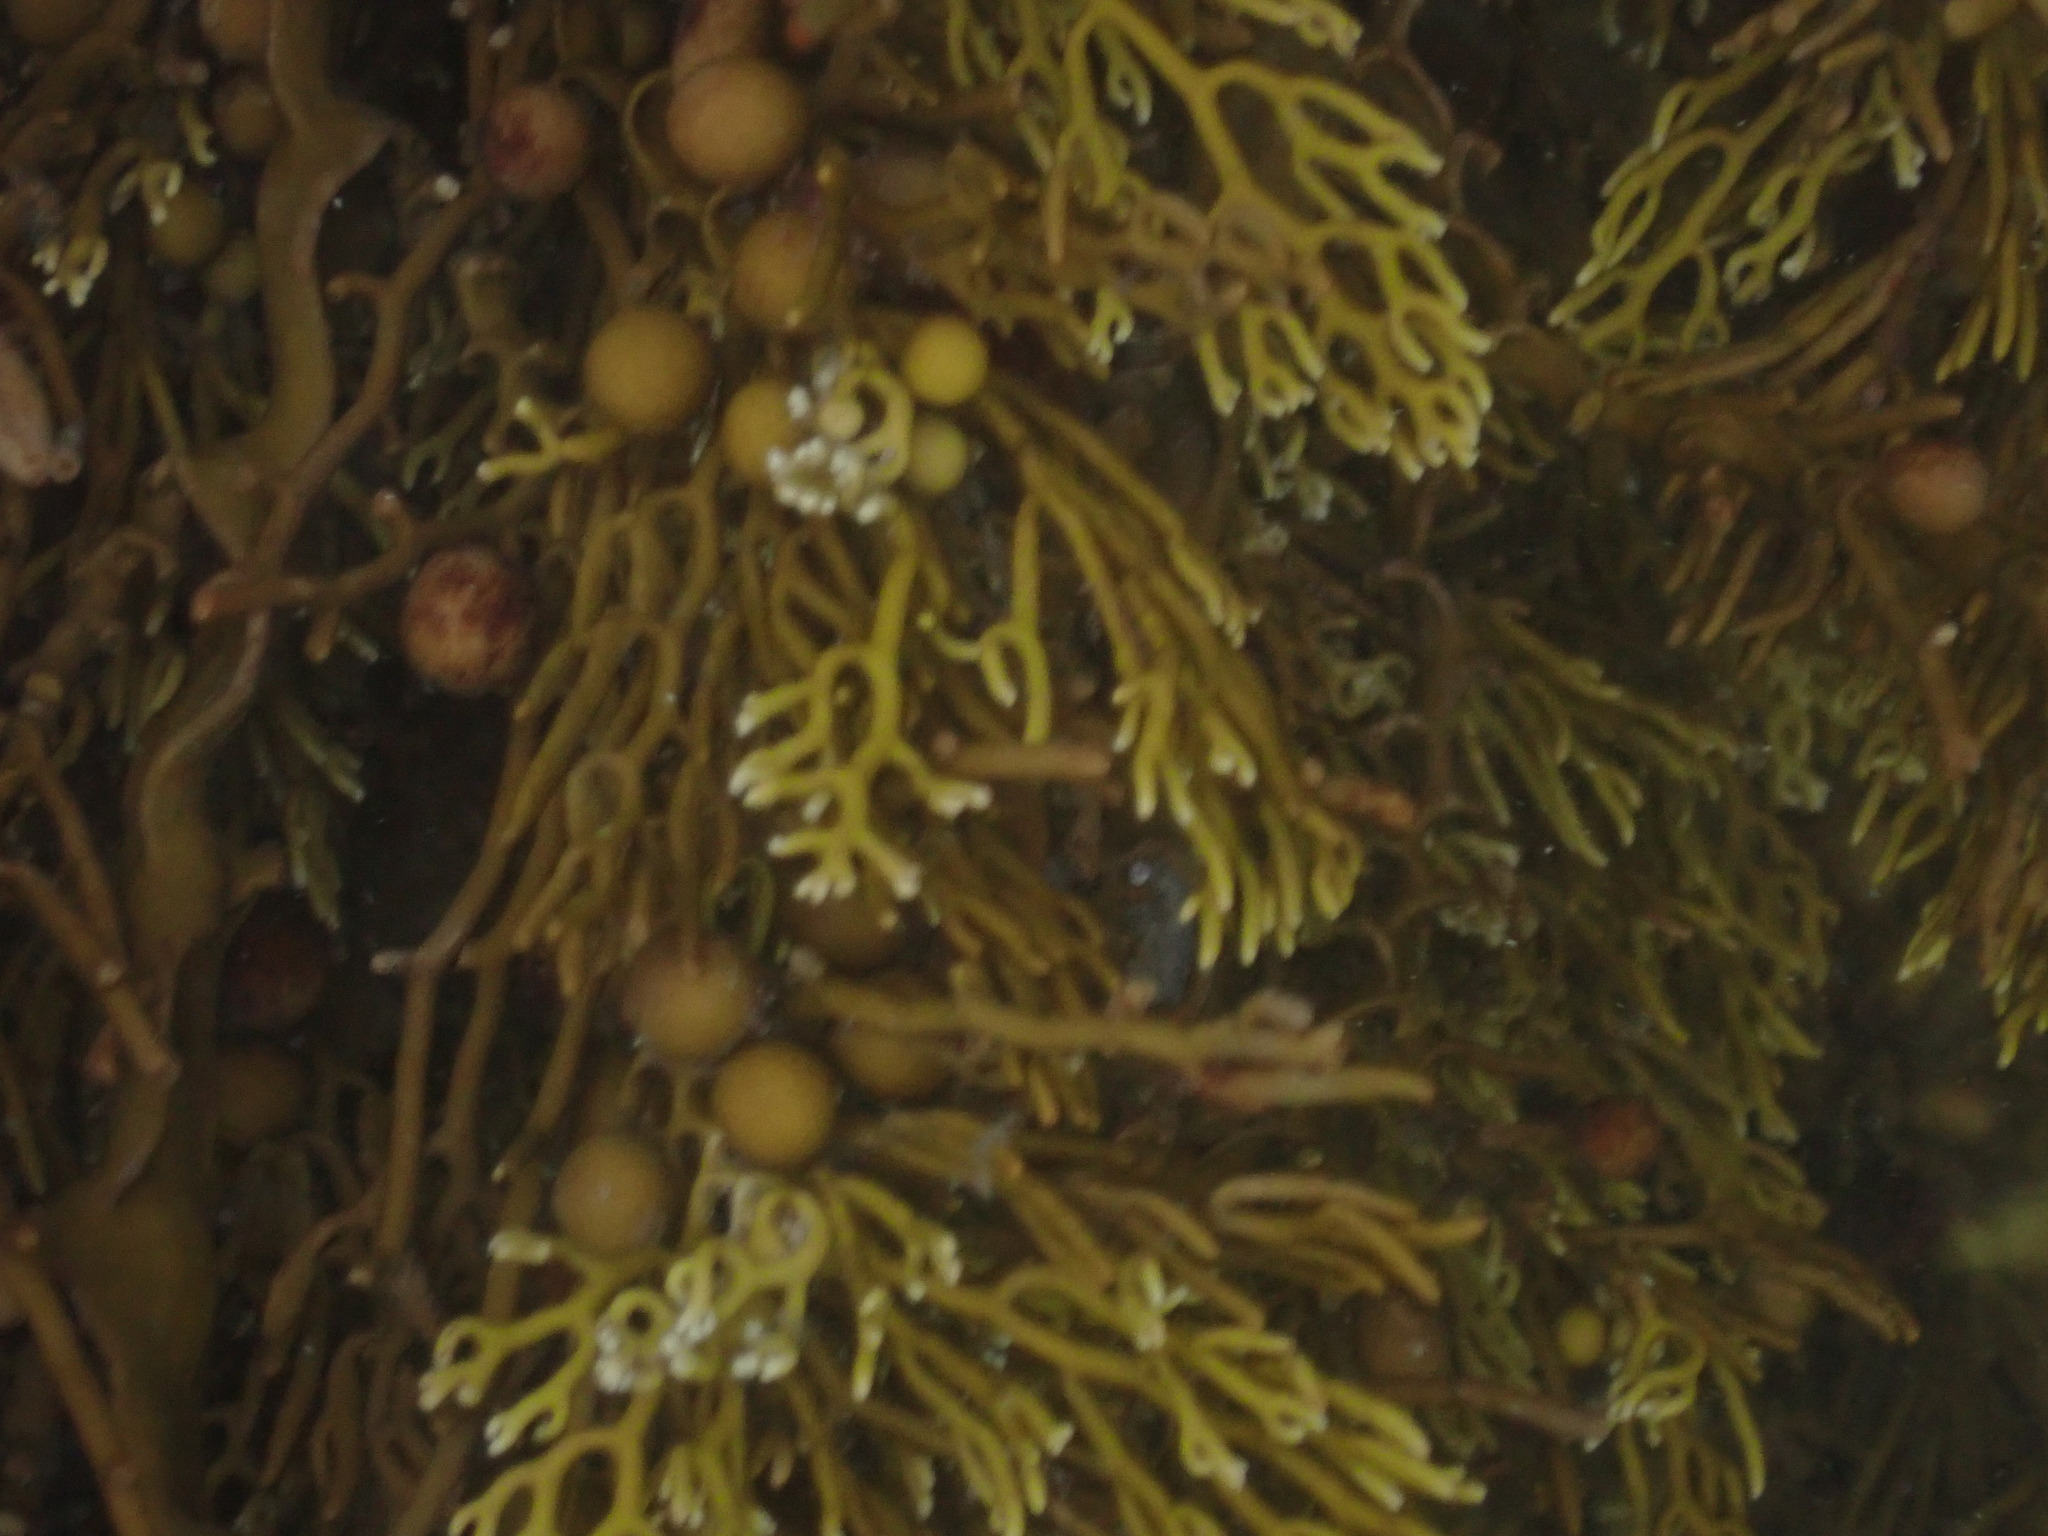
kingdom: Chromista
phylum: Ochrophyta
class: Phaeophyceae
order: Fucales
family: Sargassaceae
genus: Cystophora
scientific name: Cystophora scalaris
